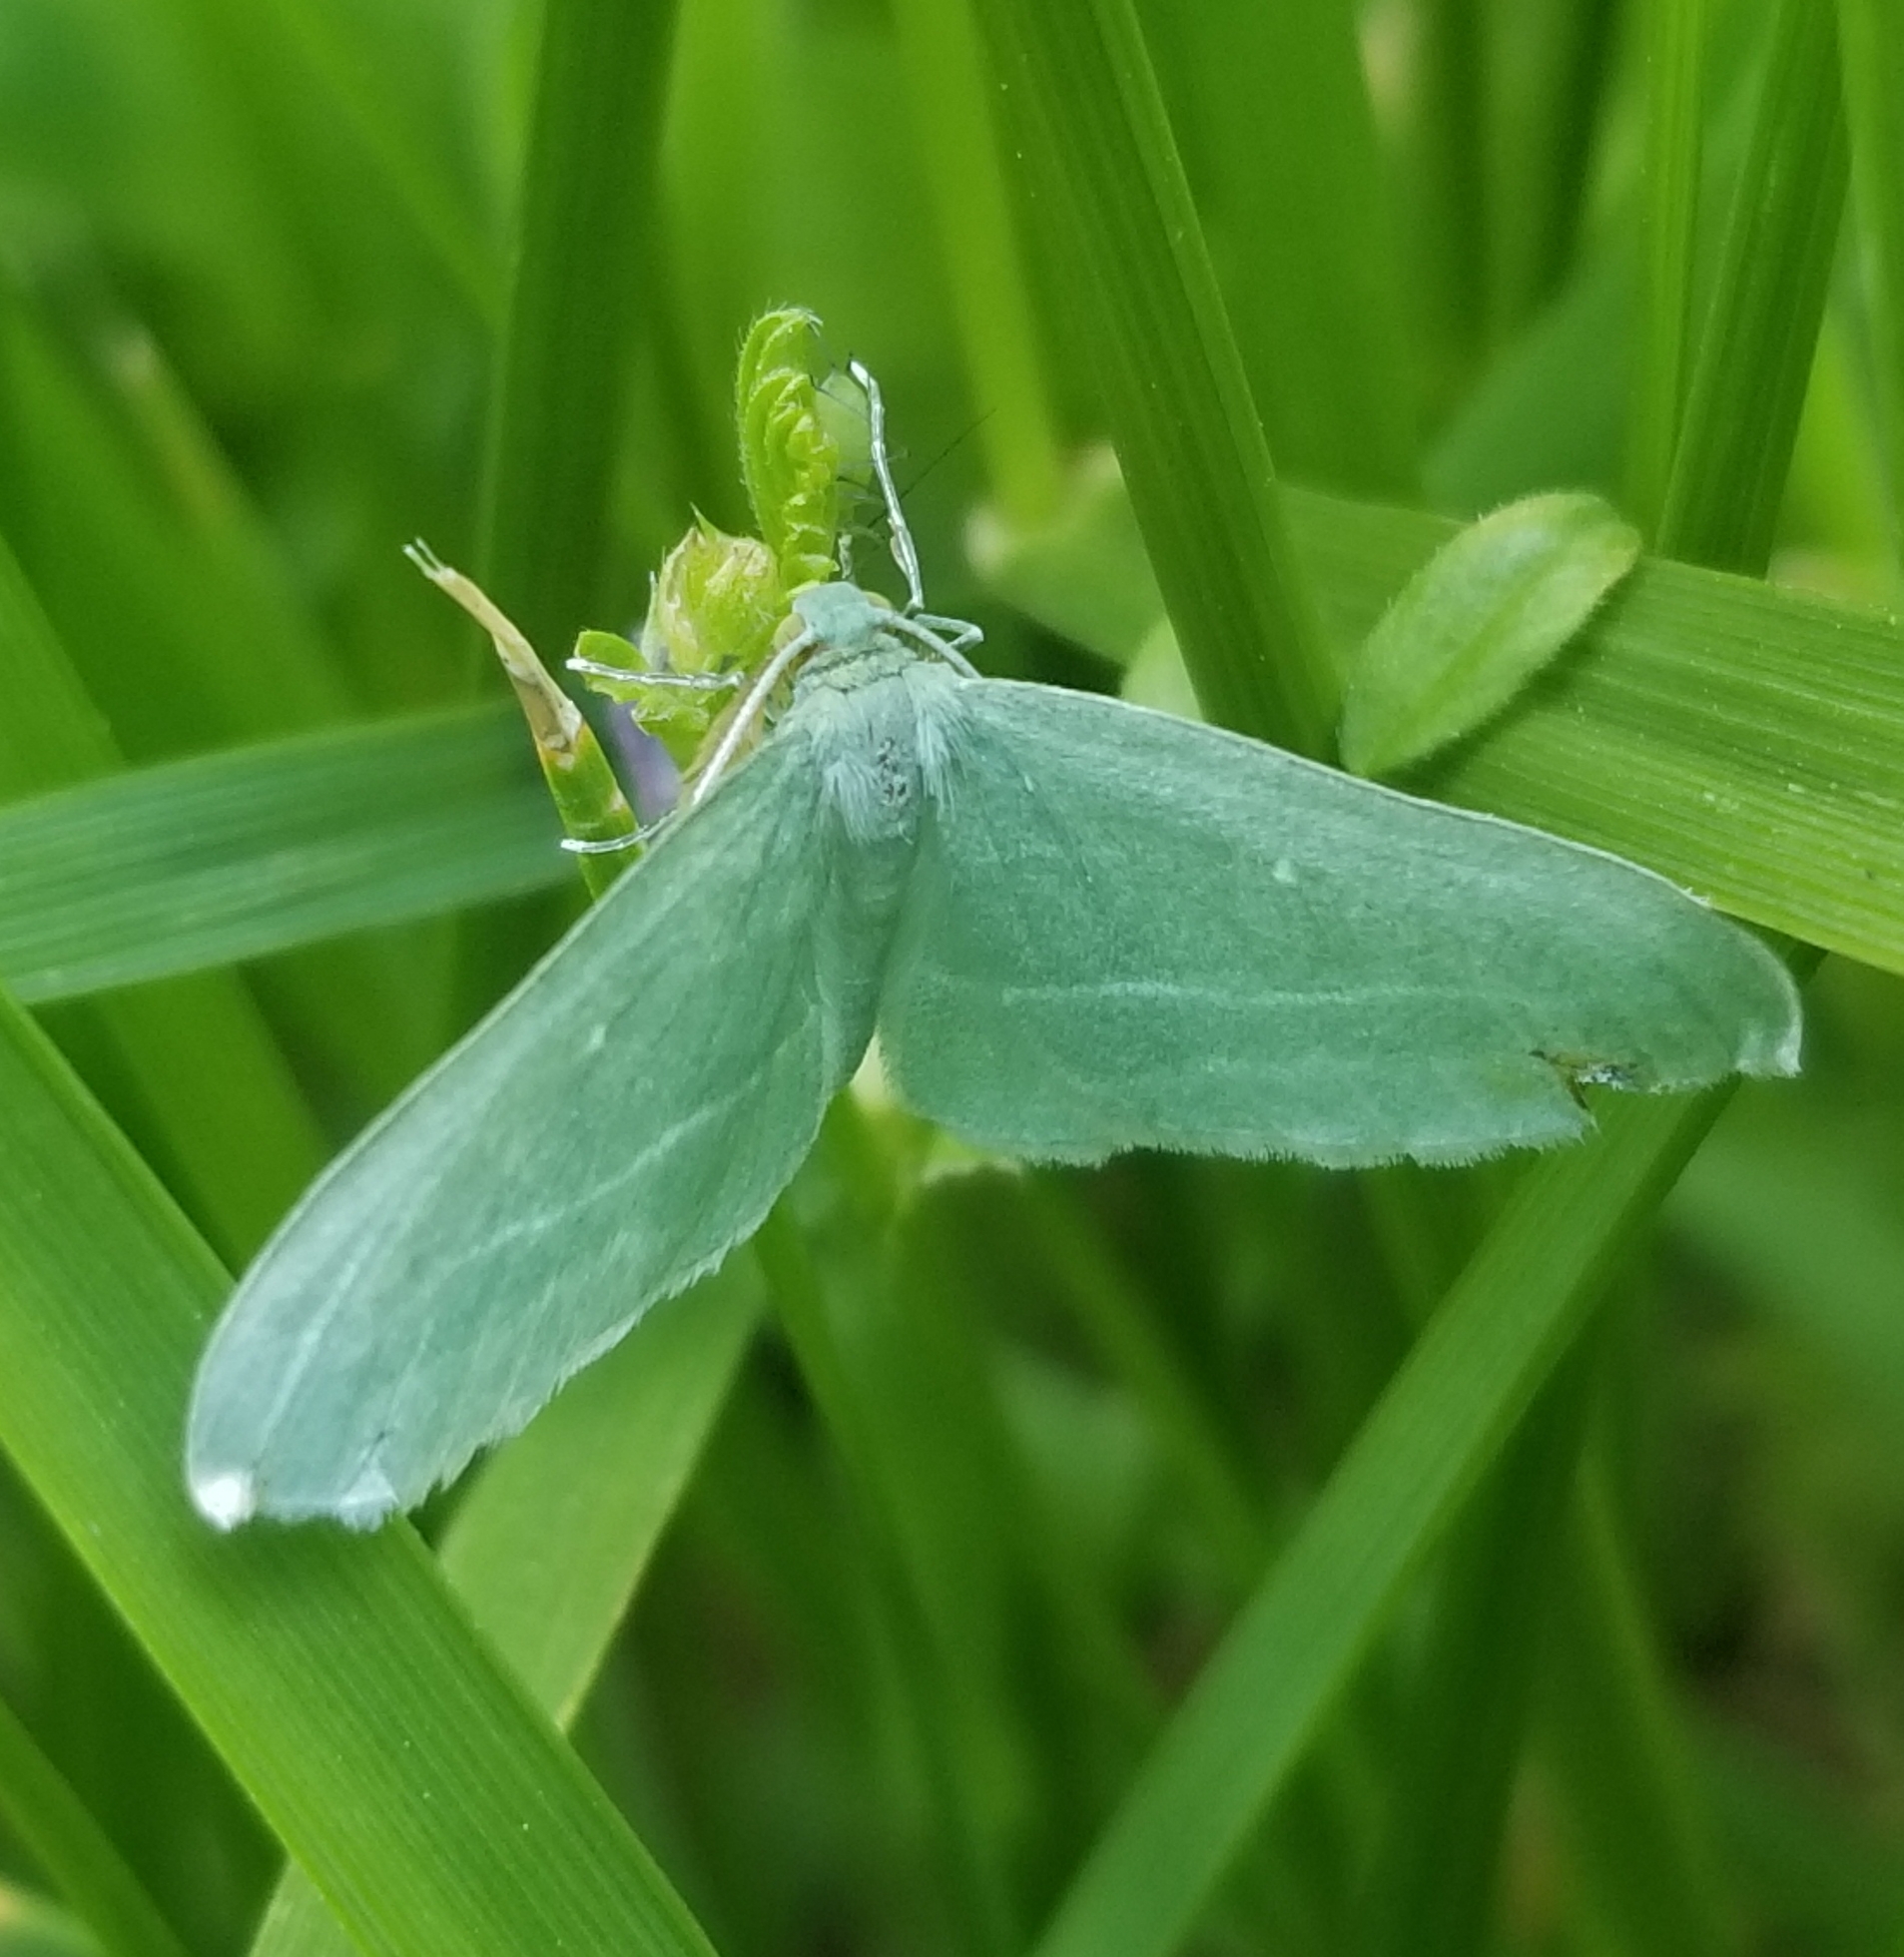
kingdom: Animalia
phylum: Arthropoda
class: Insecta
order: Lepidoptera
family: Geometridae
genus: Dyspteris
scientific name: Dyspteris abortivaria
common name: Bad-wing
